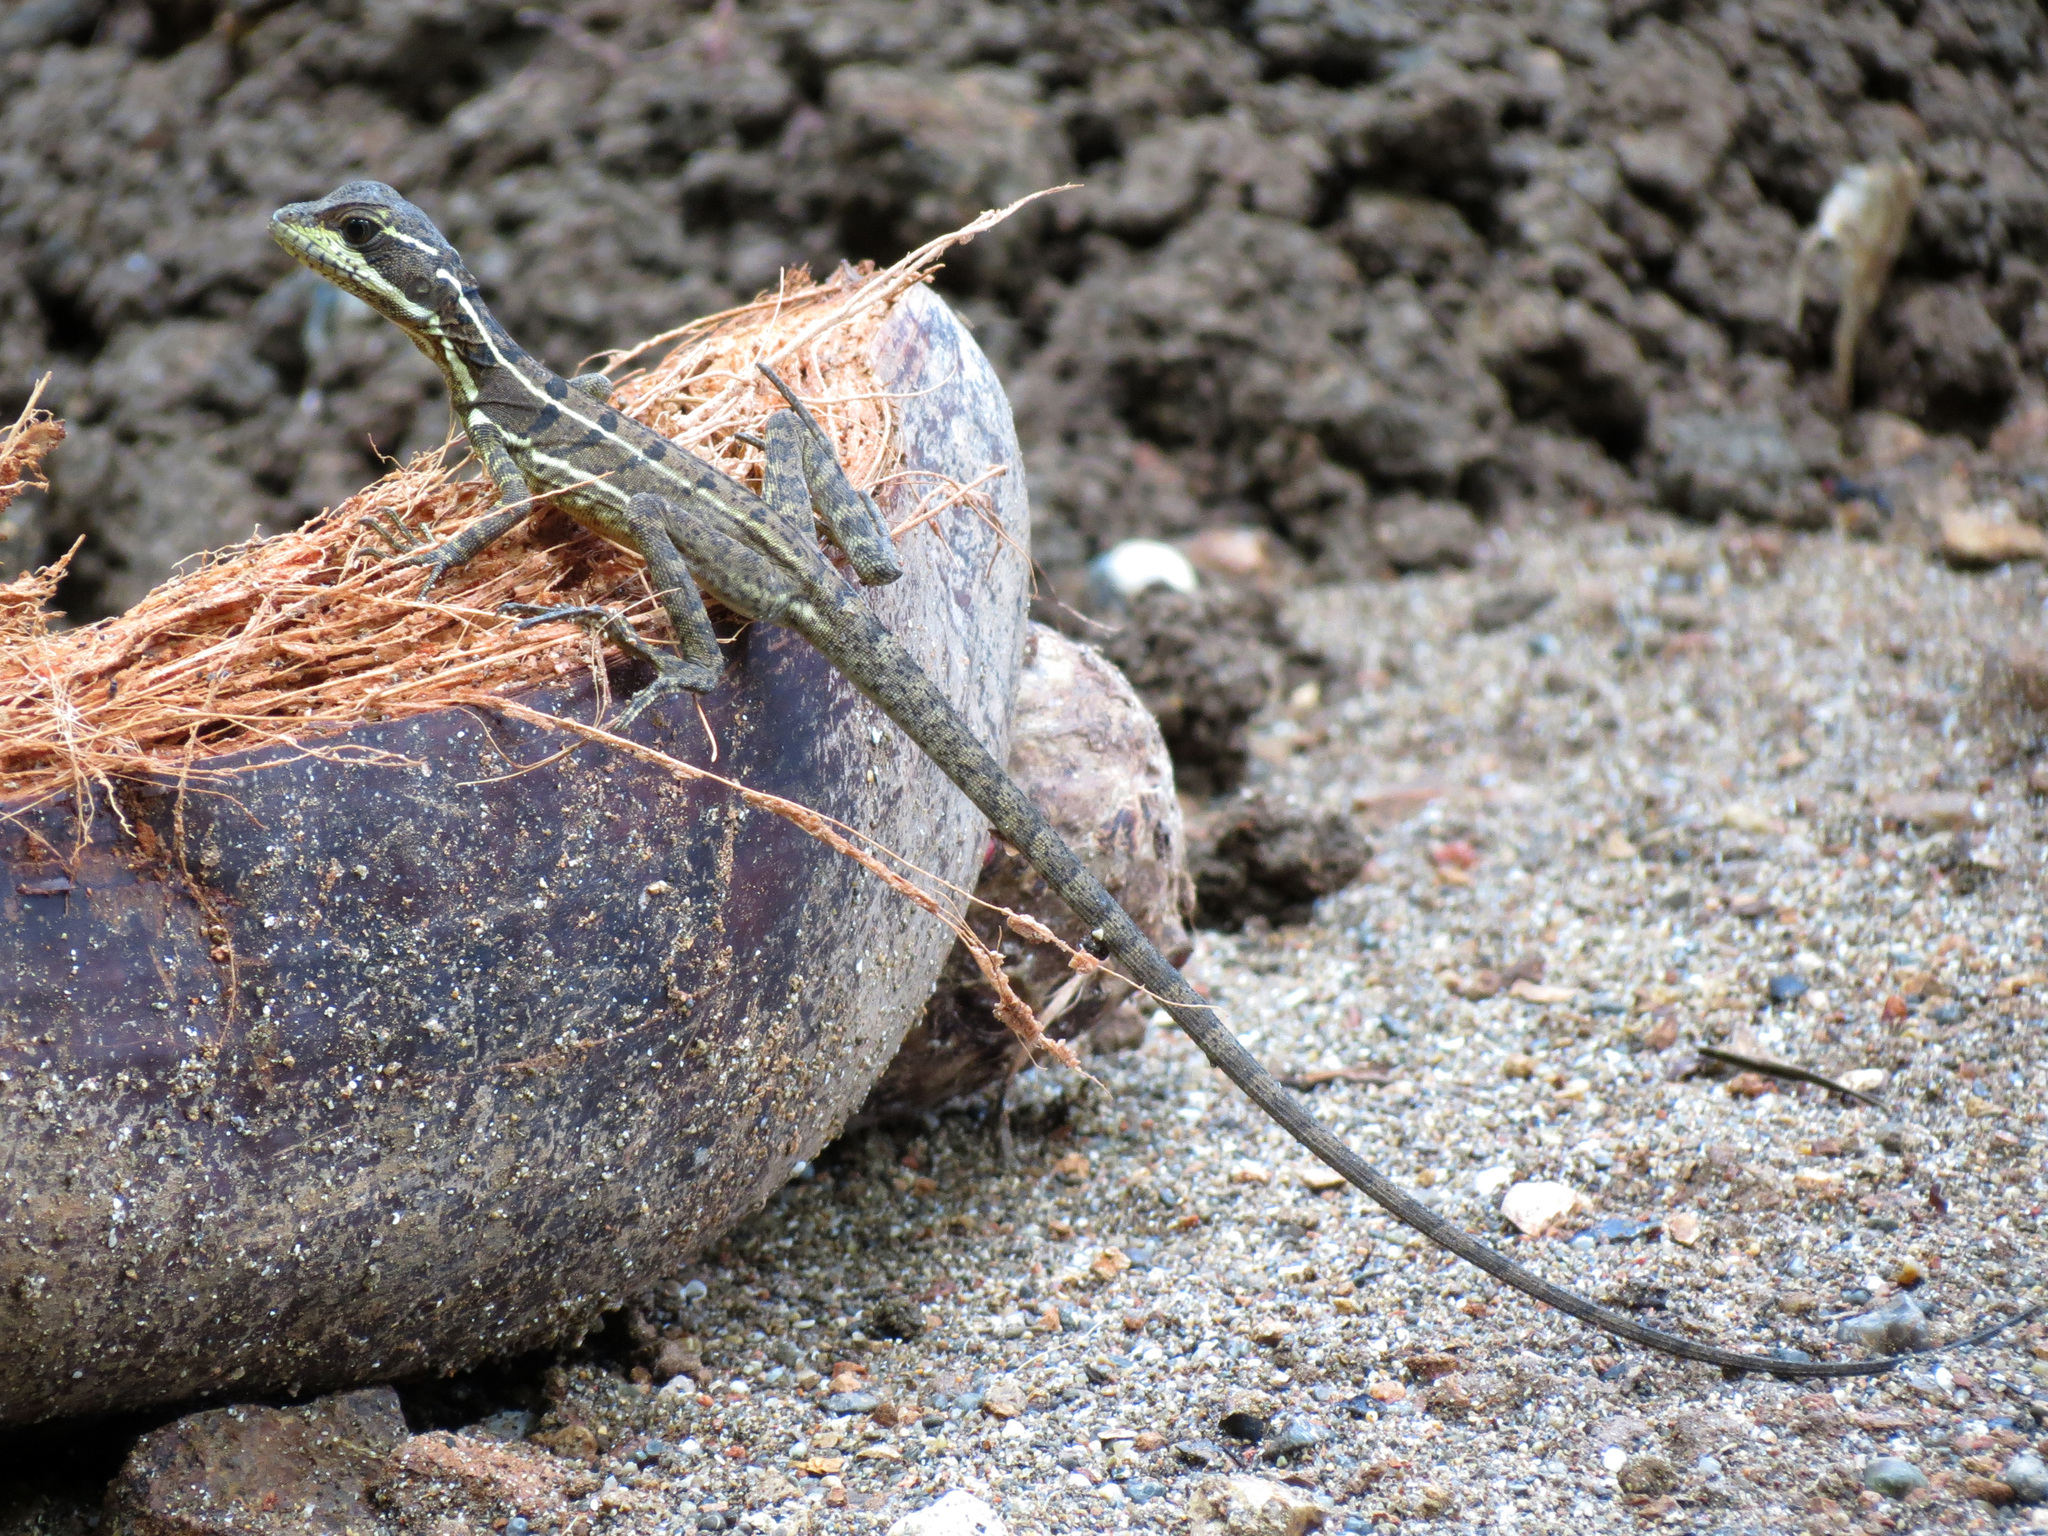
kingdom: Animalia
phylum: Chordata
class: Squamata
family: Corytophanidae
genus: Basiliscus
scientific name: Basiliscus basiliscus
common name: Common basilisk
